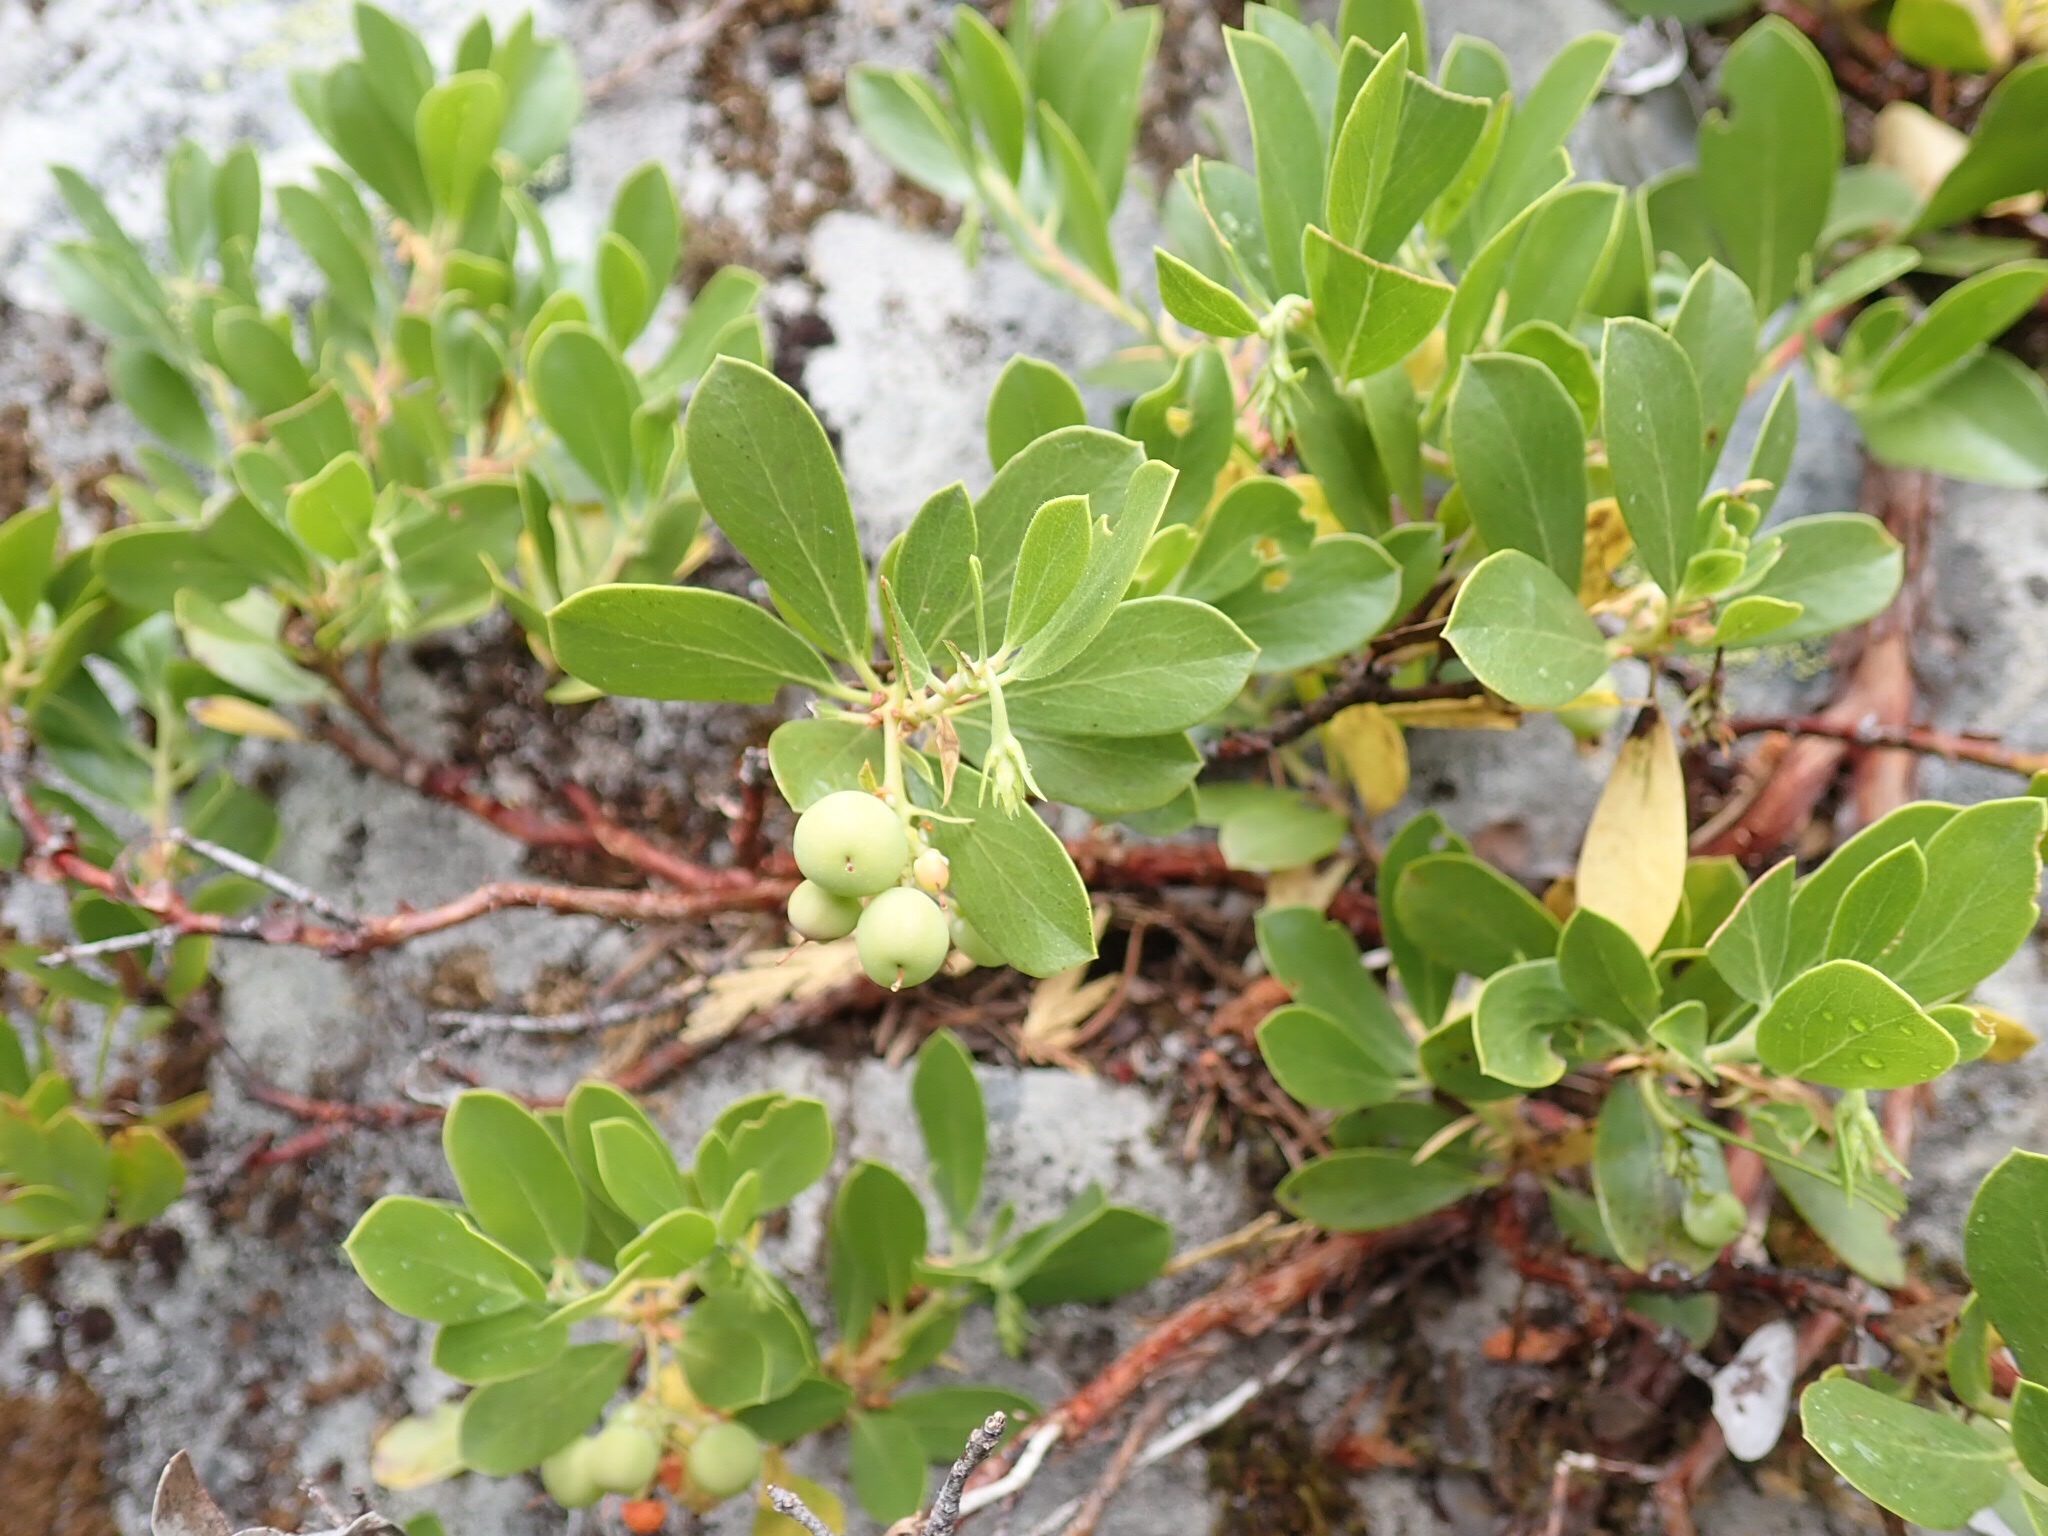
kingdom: Plantae
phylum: Tracheophyta
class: Magnoliopsida
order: Ericales
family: Ericaceae
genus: Arctostaphylos
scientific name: Arctostaphylos nevadensis
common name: Pinemat manzanita
